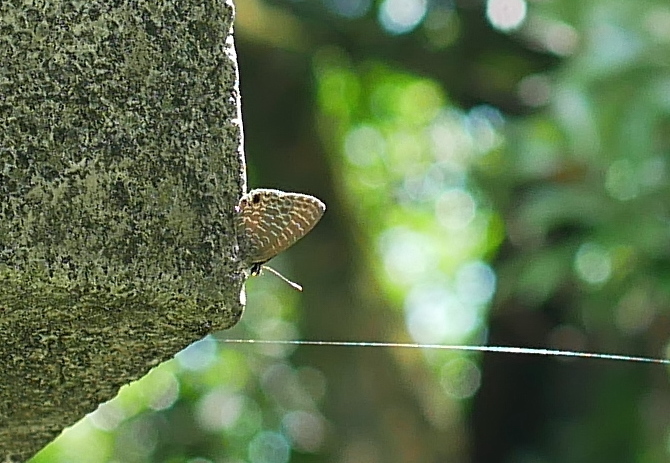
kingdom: Animalia
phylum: Arthropoda
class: Insecta
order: Lepidoptera
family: Lycaenidae
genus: Nacaduba
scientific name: Nacaduba kurava
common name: Transparent 6-line blue
